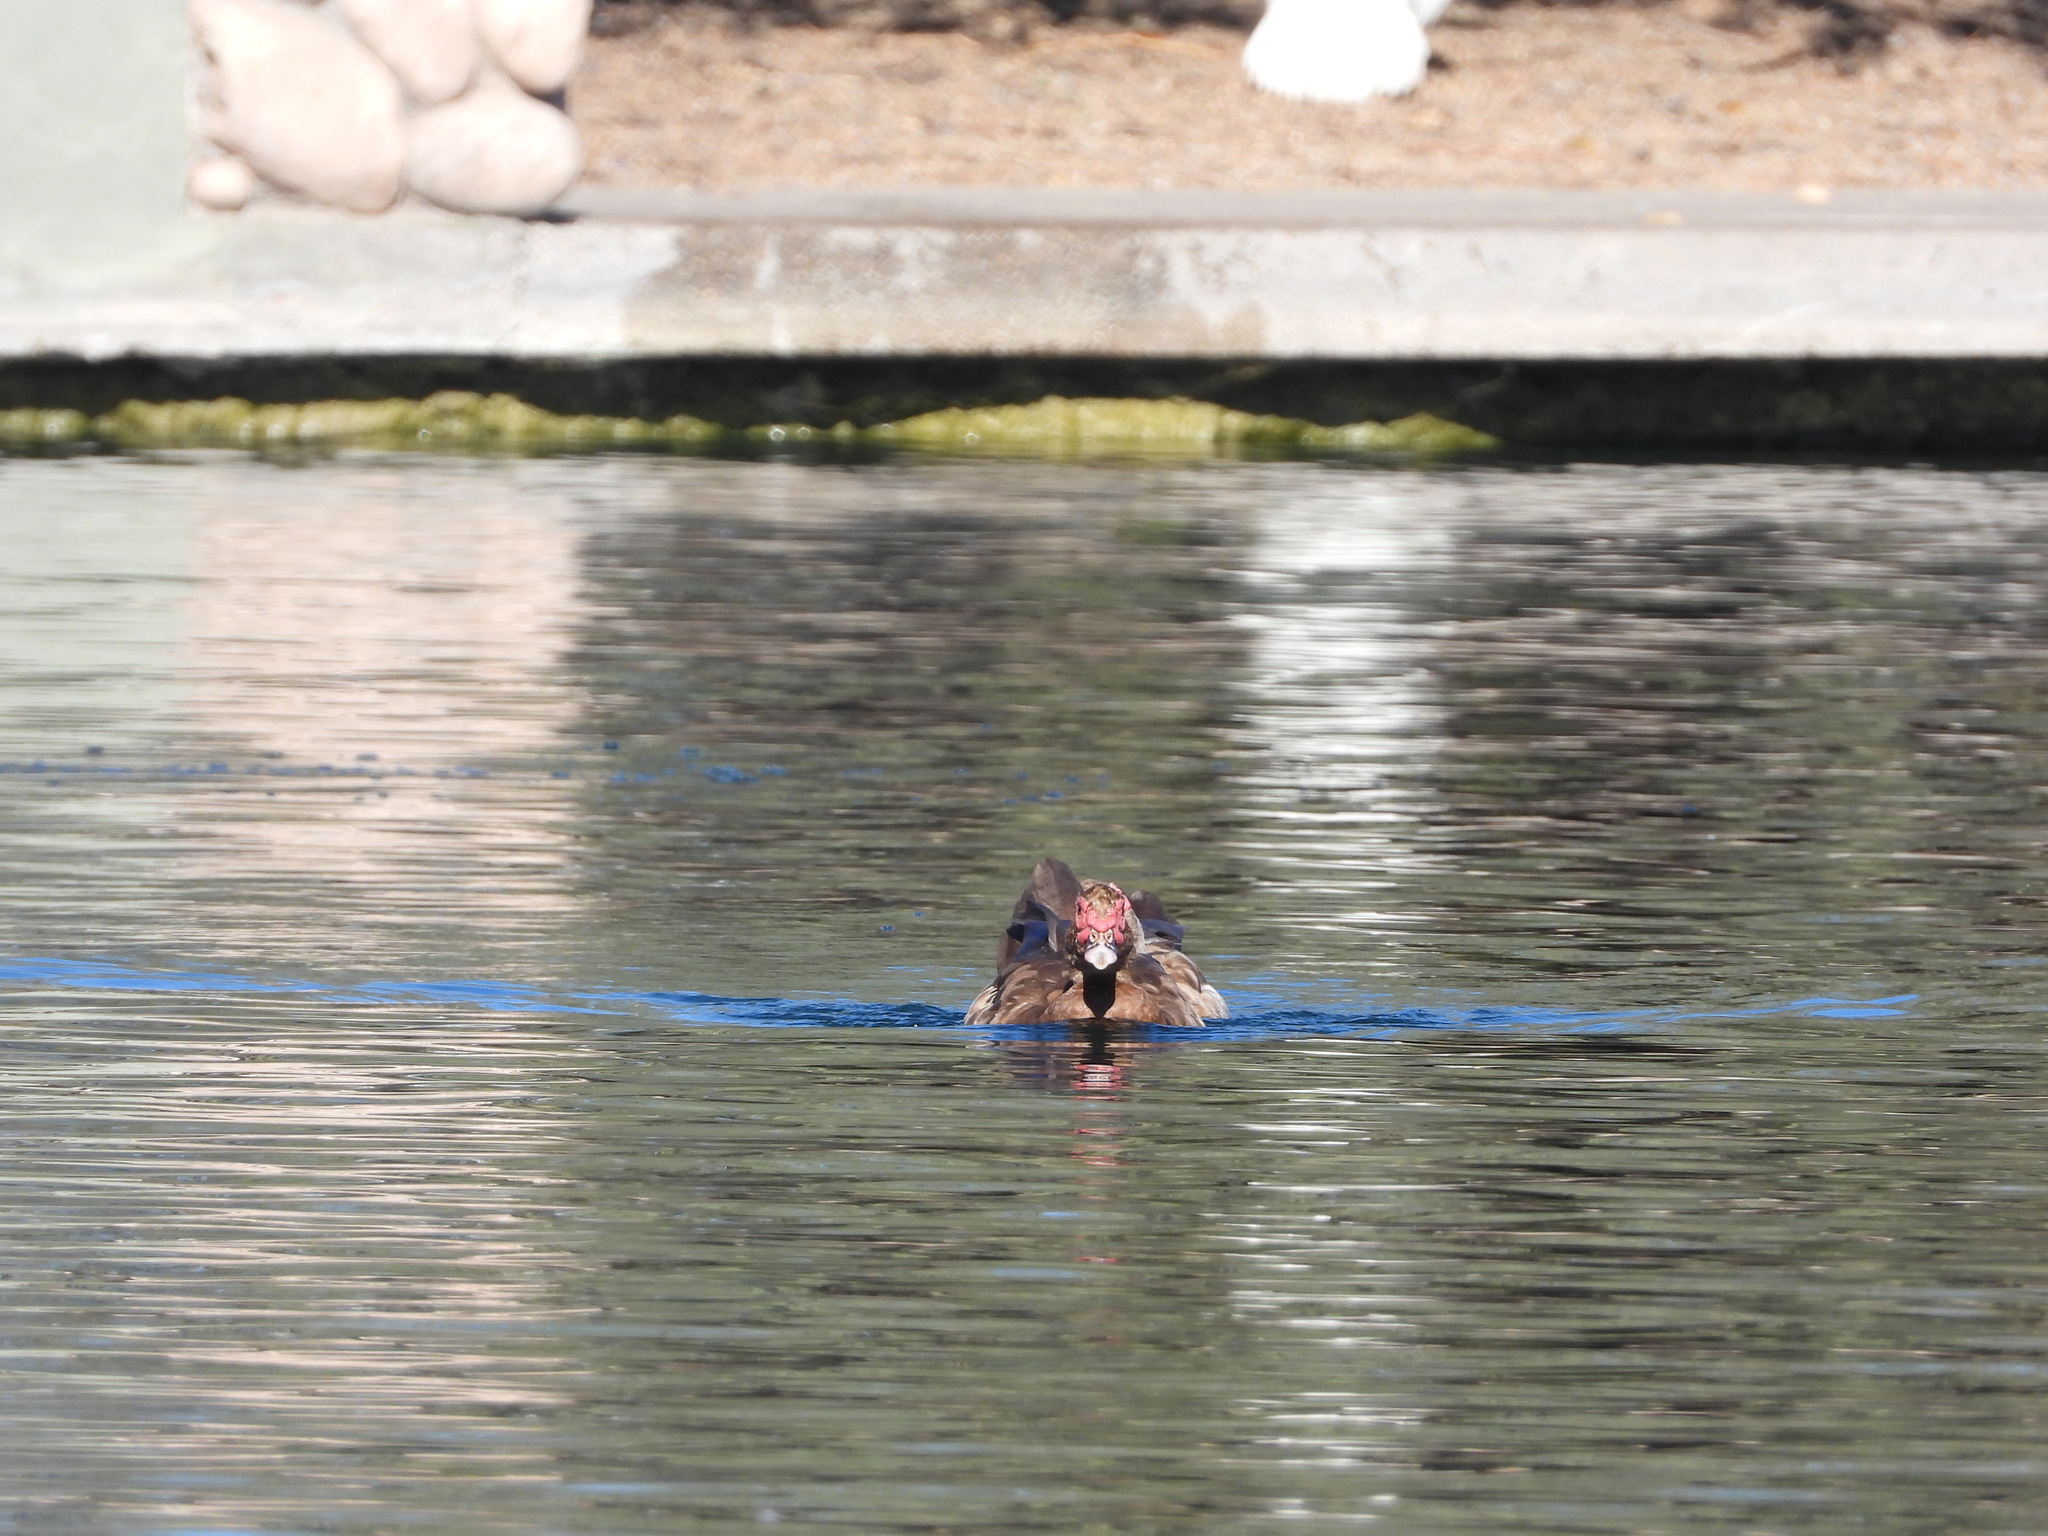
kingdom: Animalia
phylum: Chordata
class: Aves
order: Anseriformes
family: Anatidae
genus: Cairina
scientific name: Cairina moschata
